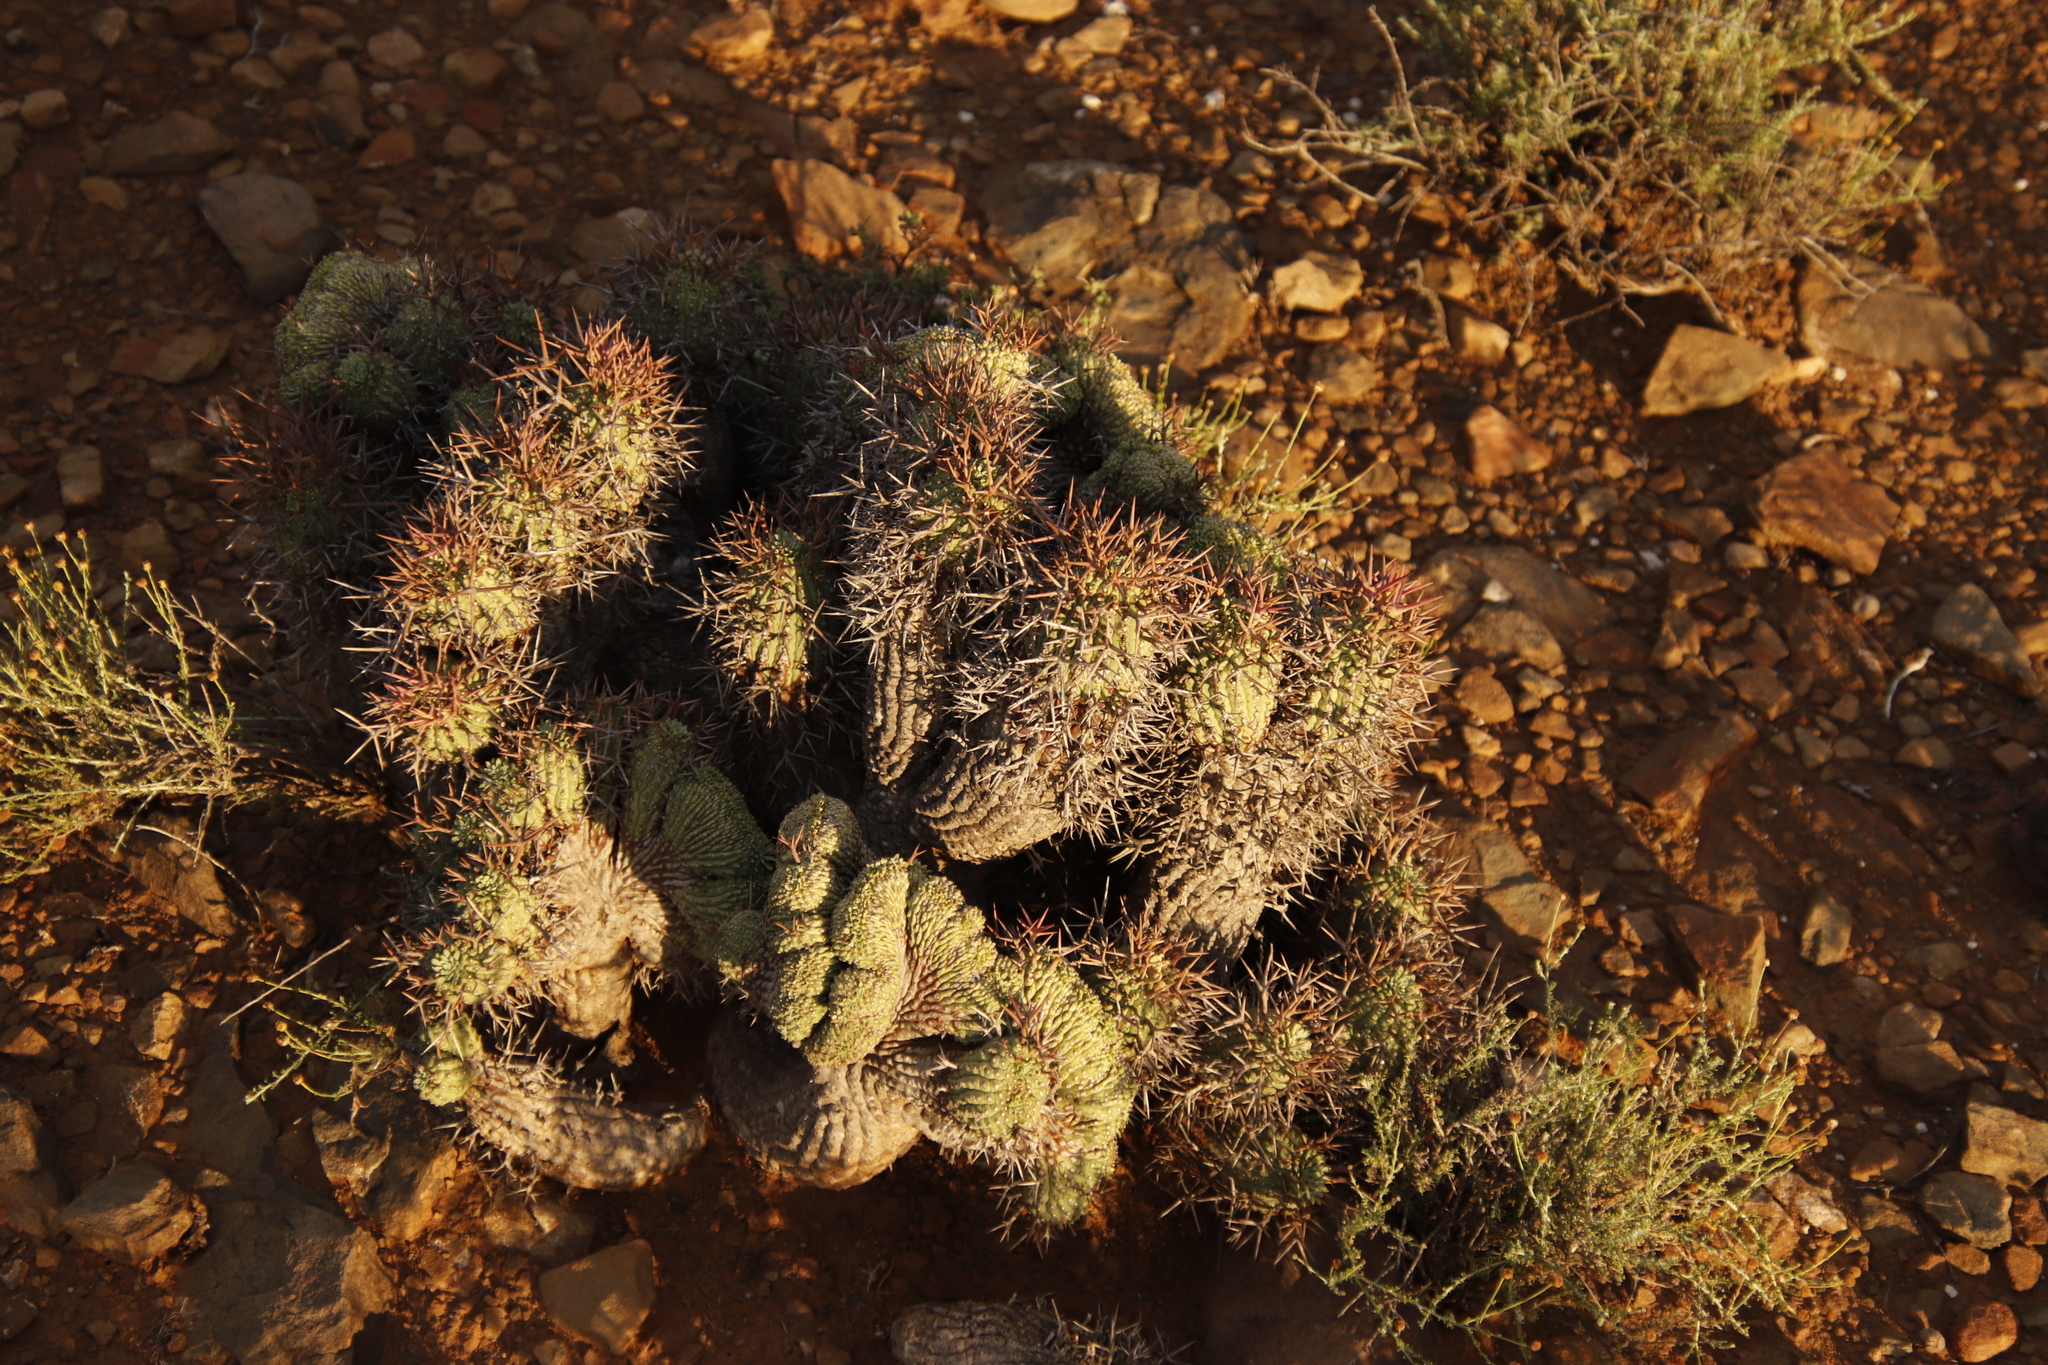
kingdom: Plantae
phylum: Tracheophyta
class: Magnoliopsida
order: Malpighiales
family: Euphorbiaceae
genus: Euphorbia
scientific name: Euphorbia stellispina
